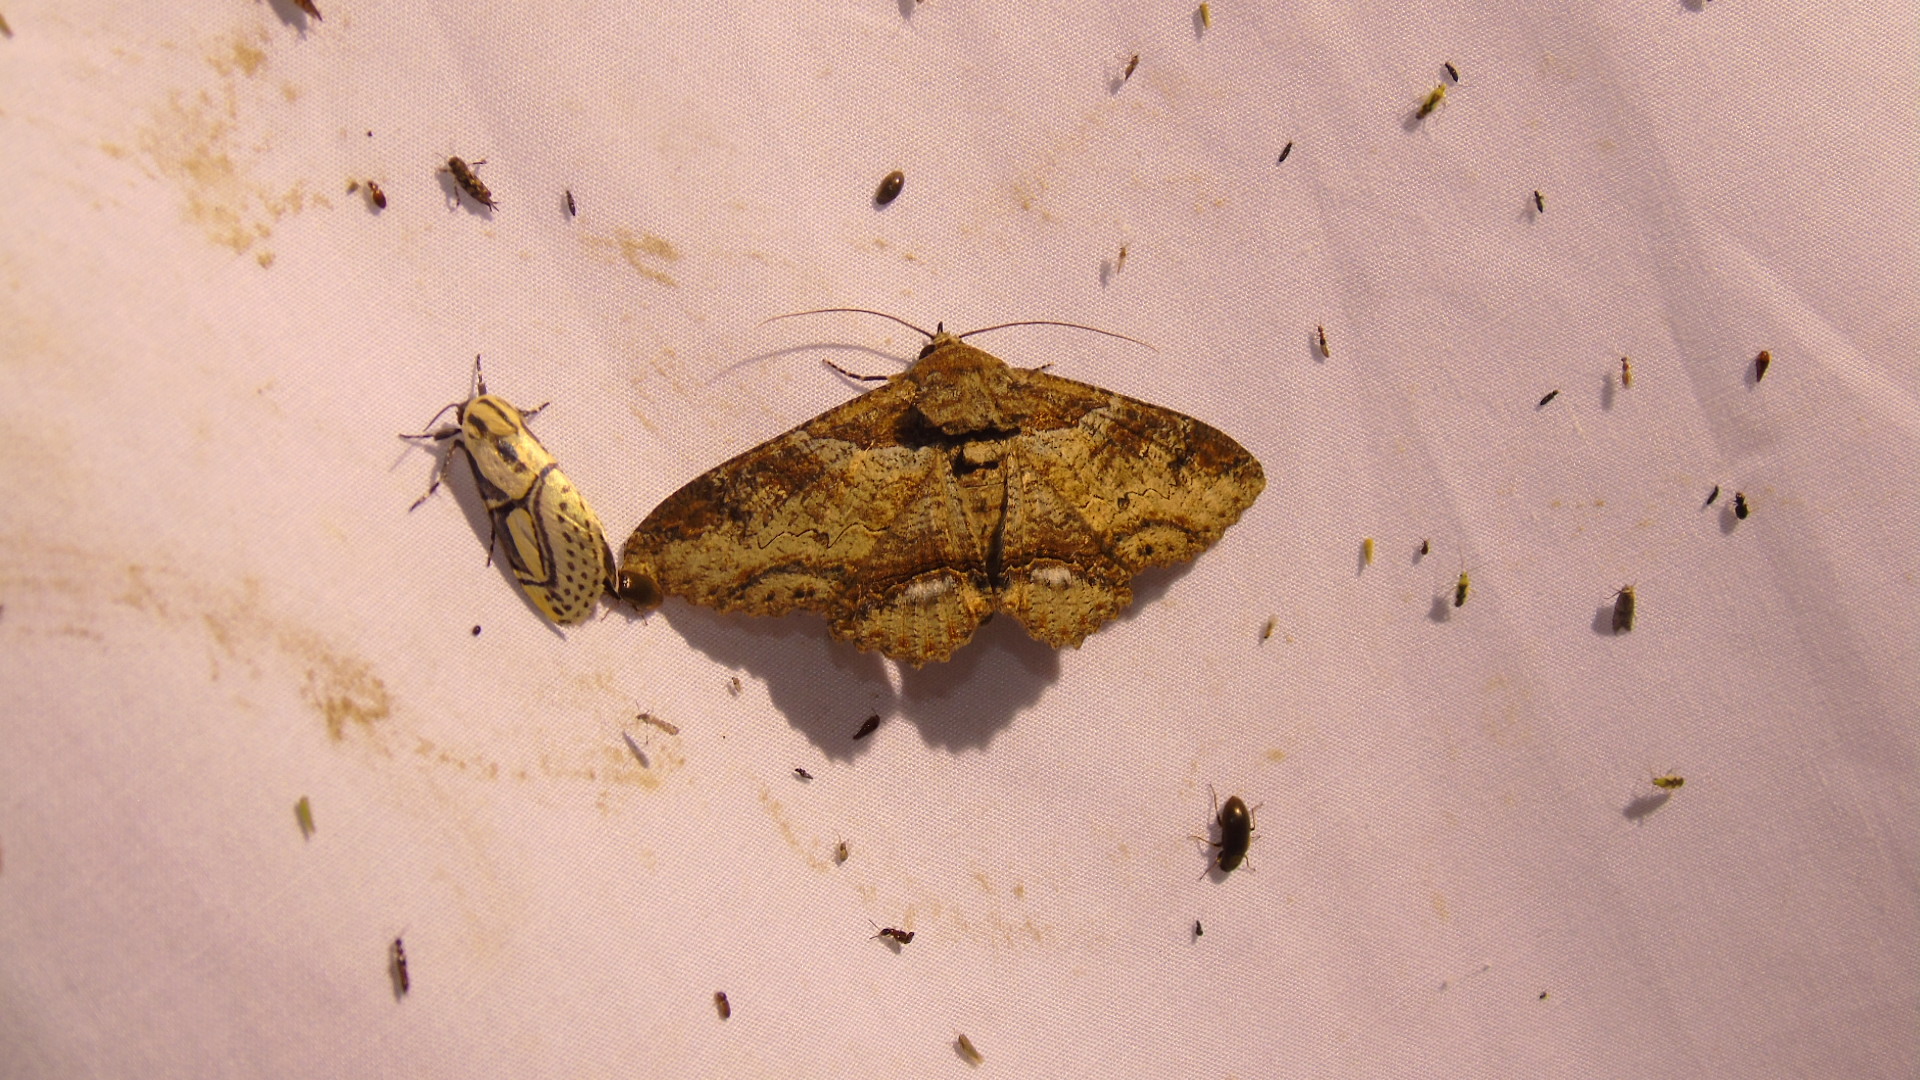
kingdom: Animalia
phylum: Arthropoda
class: Insecta
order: Lepidoptera
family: Erebidae
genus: Zale
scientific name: Zale viridans
